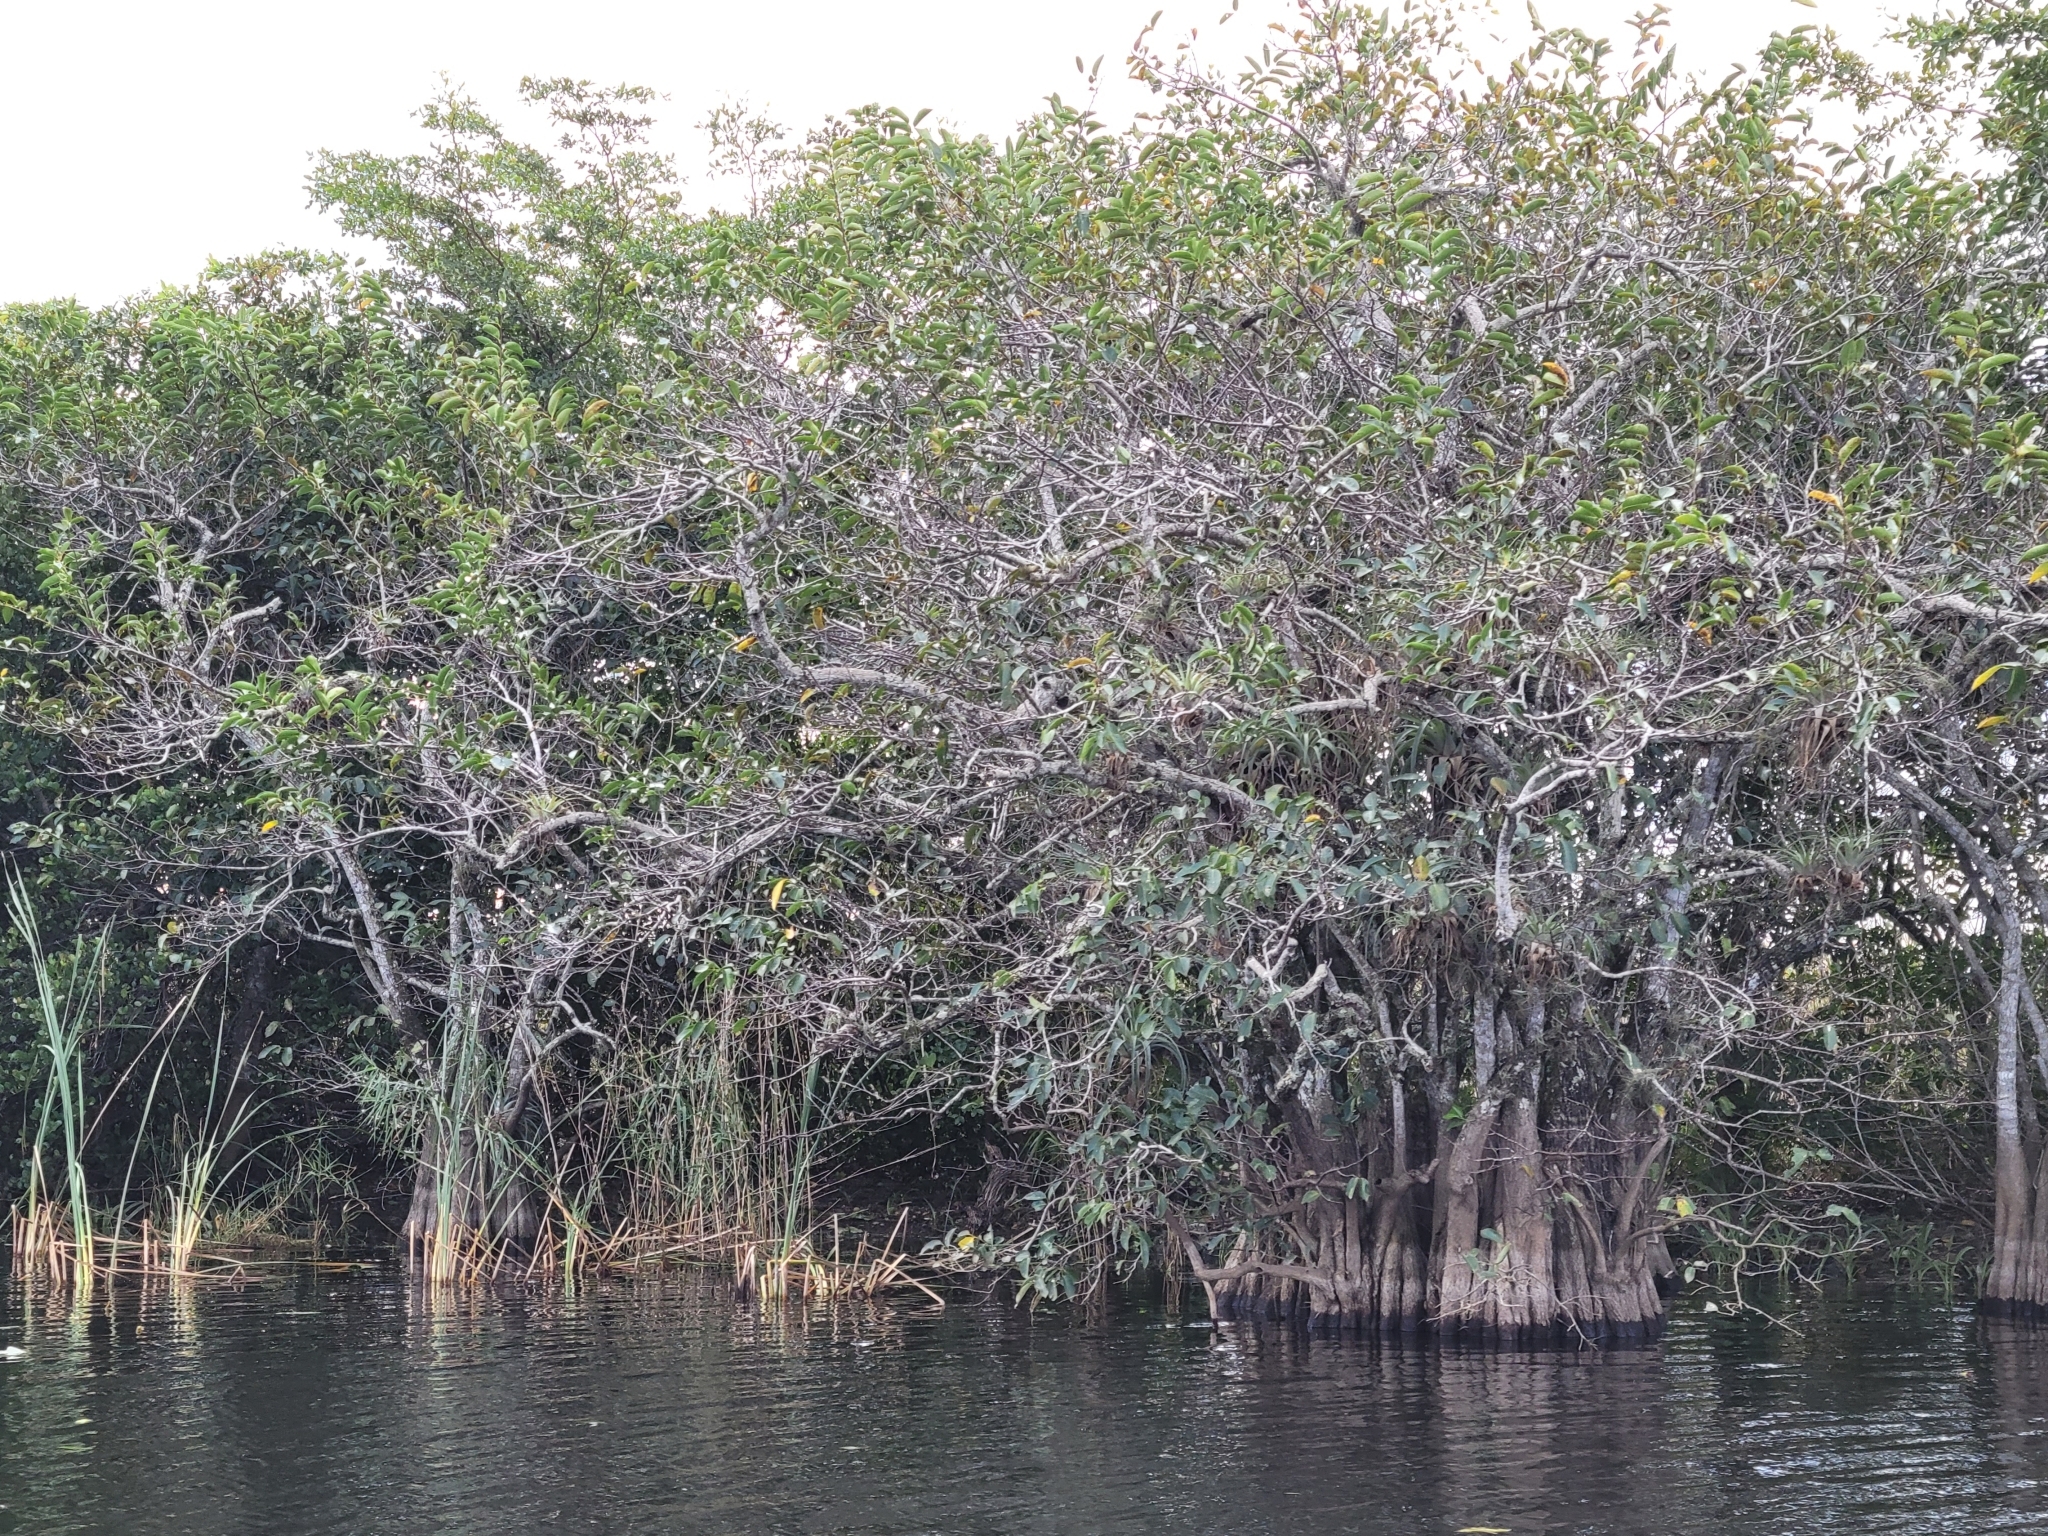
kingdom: Plantae
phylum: Tracheophyta
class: Magnoliopsida
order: Magnoliales
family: Annonaceae
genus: Annona
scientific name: Annona glabra
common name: Monkey apple
